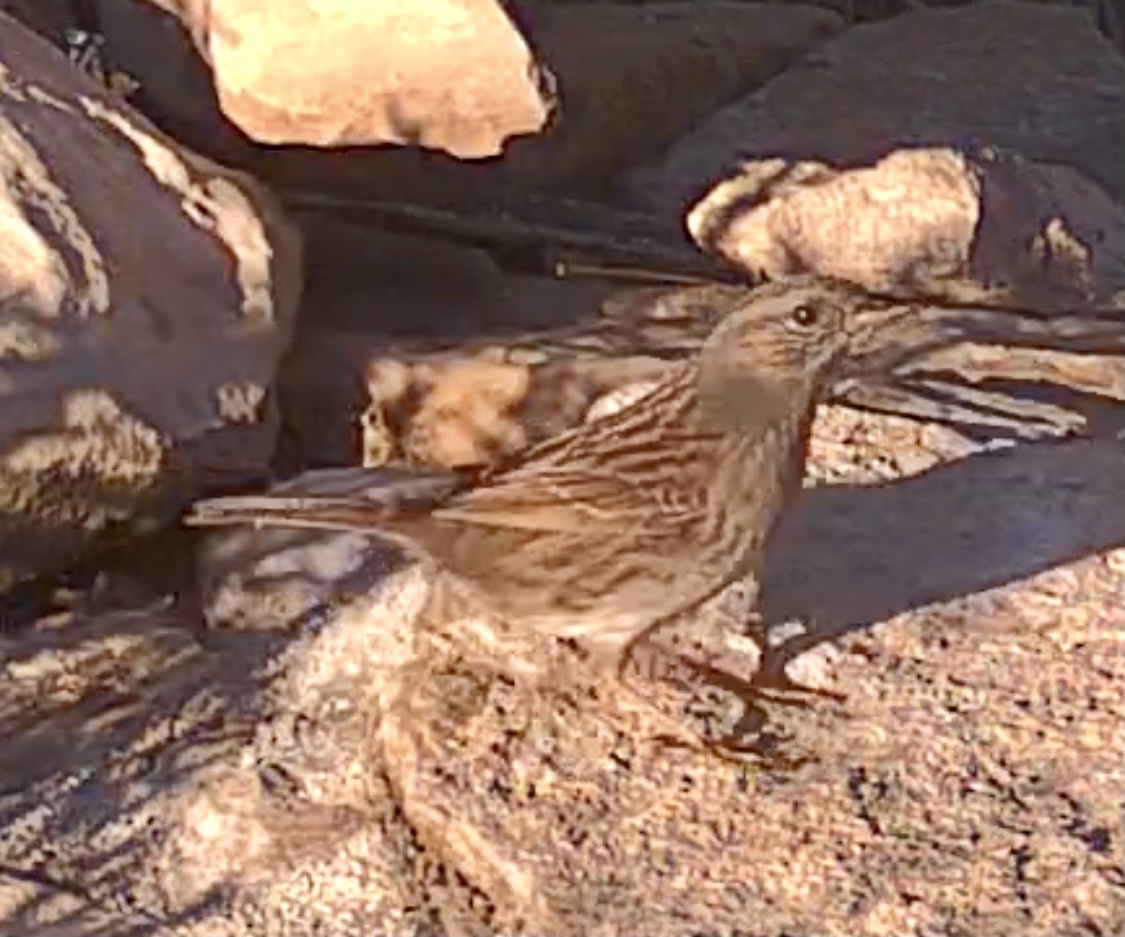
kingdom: Animalia
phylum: Chordata
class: Aves
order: Passeriformes
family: Prunellidae
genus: Prunella
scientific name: Prunella modularis
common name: Dunnock
